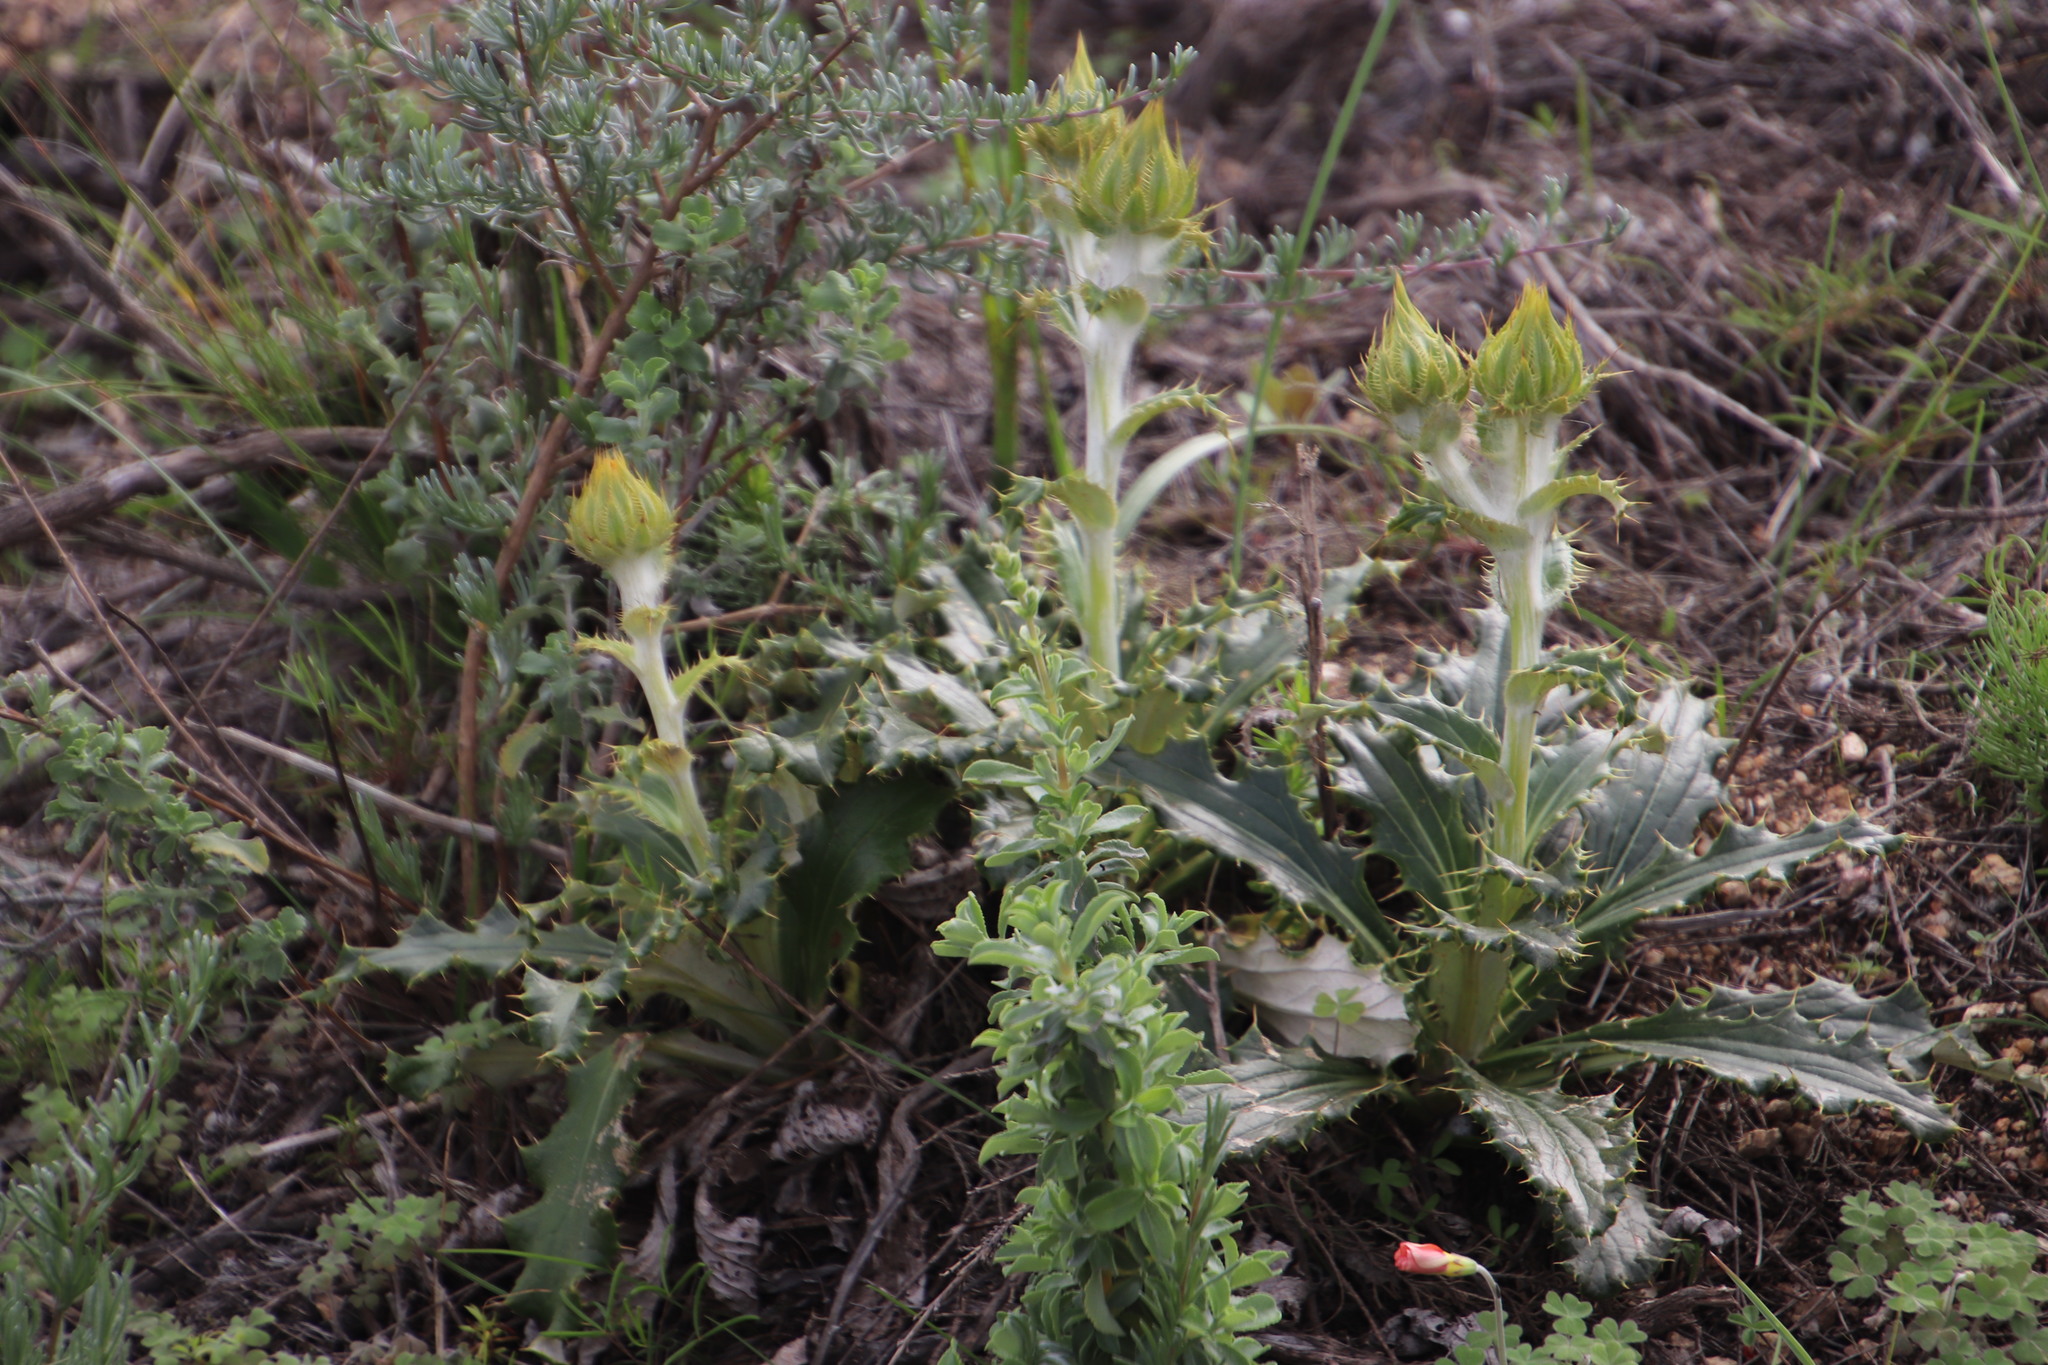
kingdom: Plantae
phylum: Tracheophyta
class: Magnoliopsida
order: Asterales
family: Asteraceae
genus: Berkheya
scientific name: Berkheya armata
